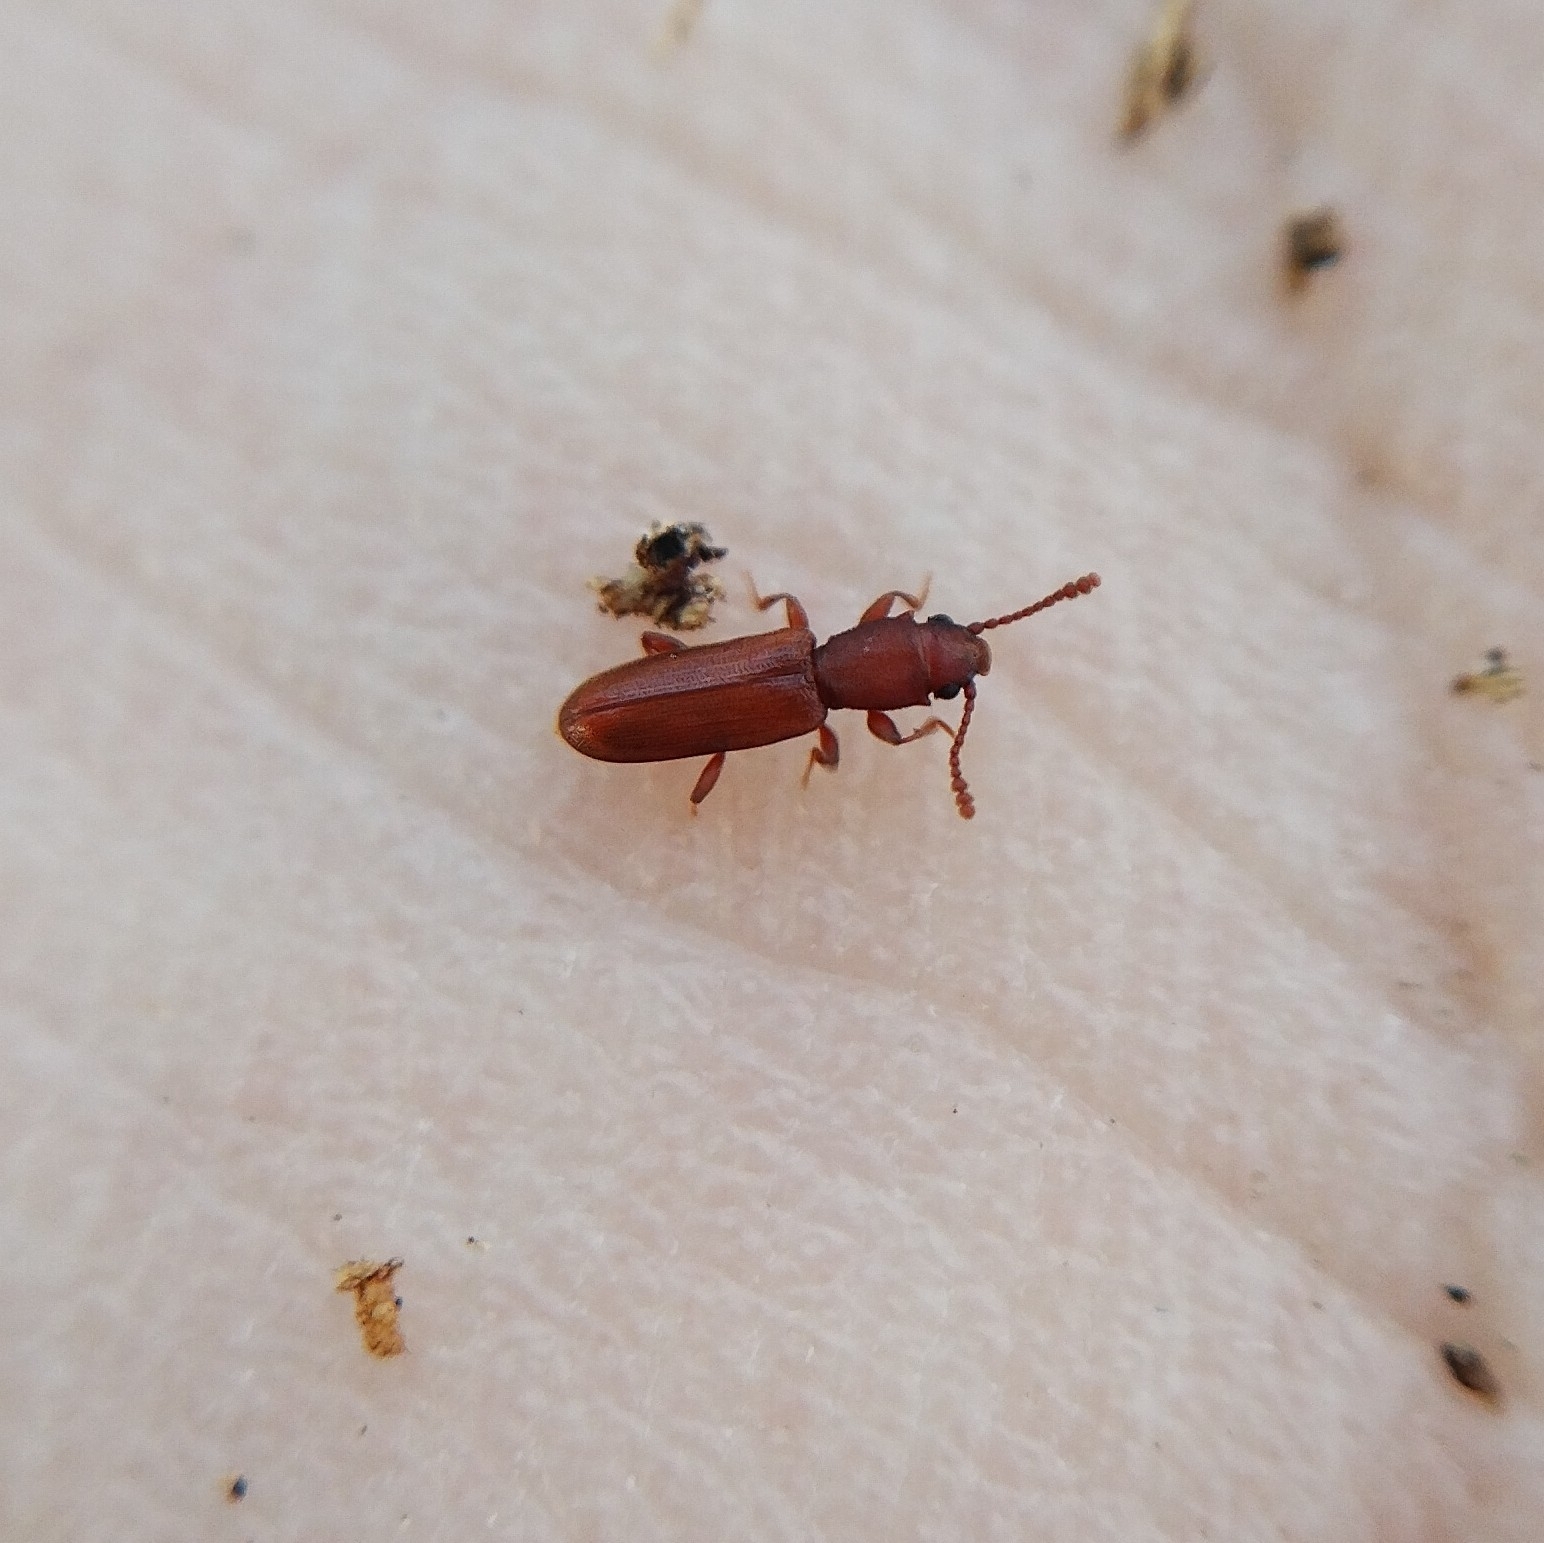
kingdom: Animalia
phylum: Arthropoda
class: Insecta
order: Coleoptera
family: Silvanidae
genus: Silvanus
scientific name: Silvanus unidentatus
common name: One-toothed silvan flat bark beetle
